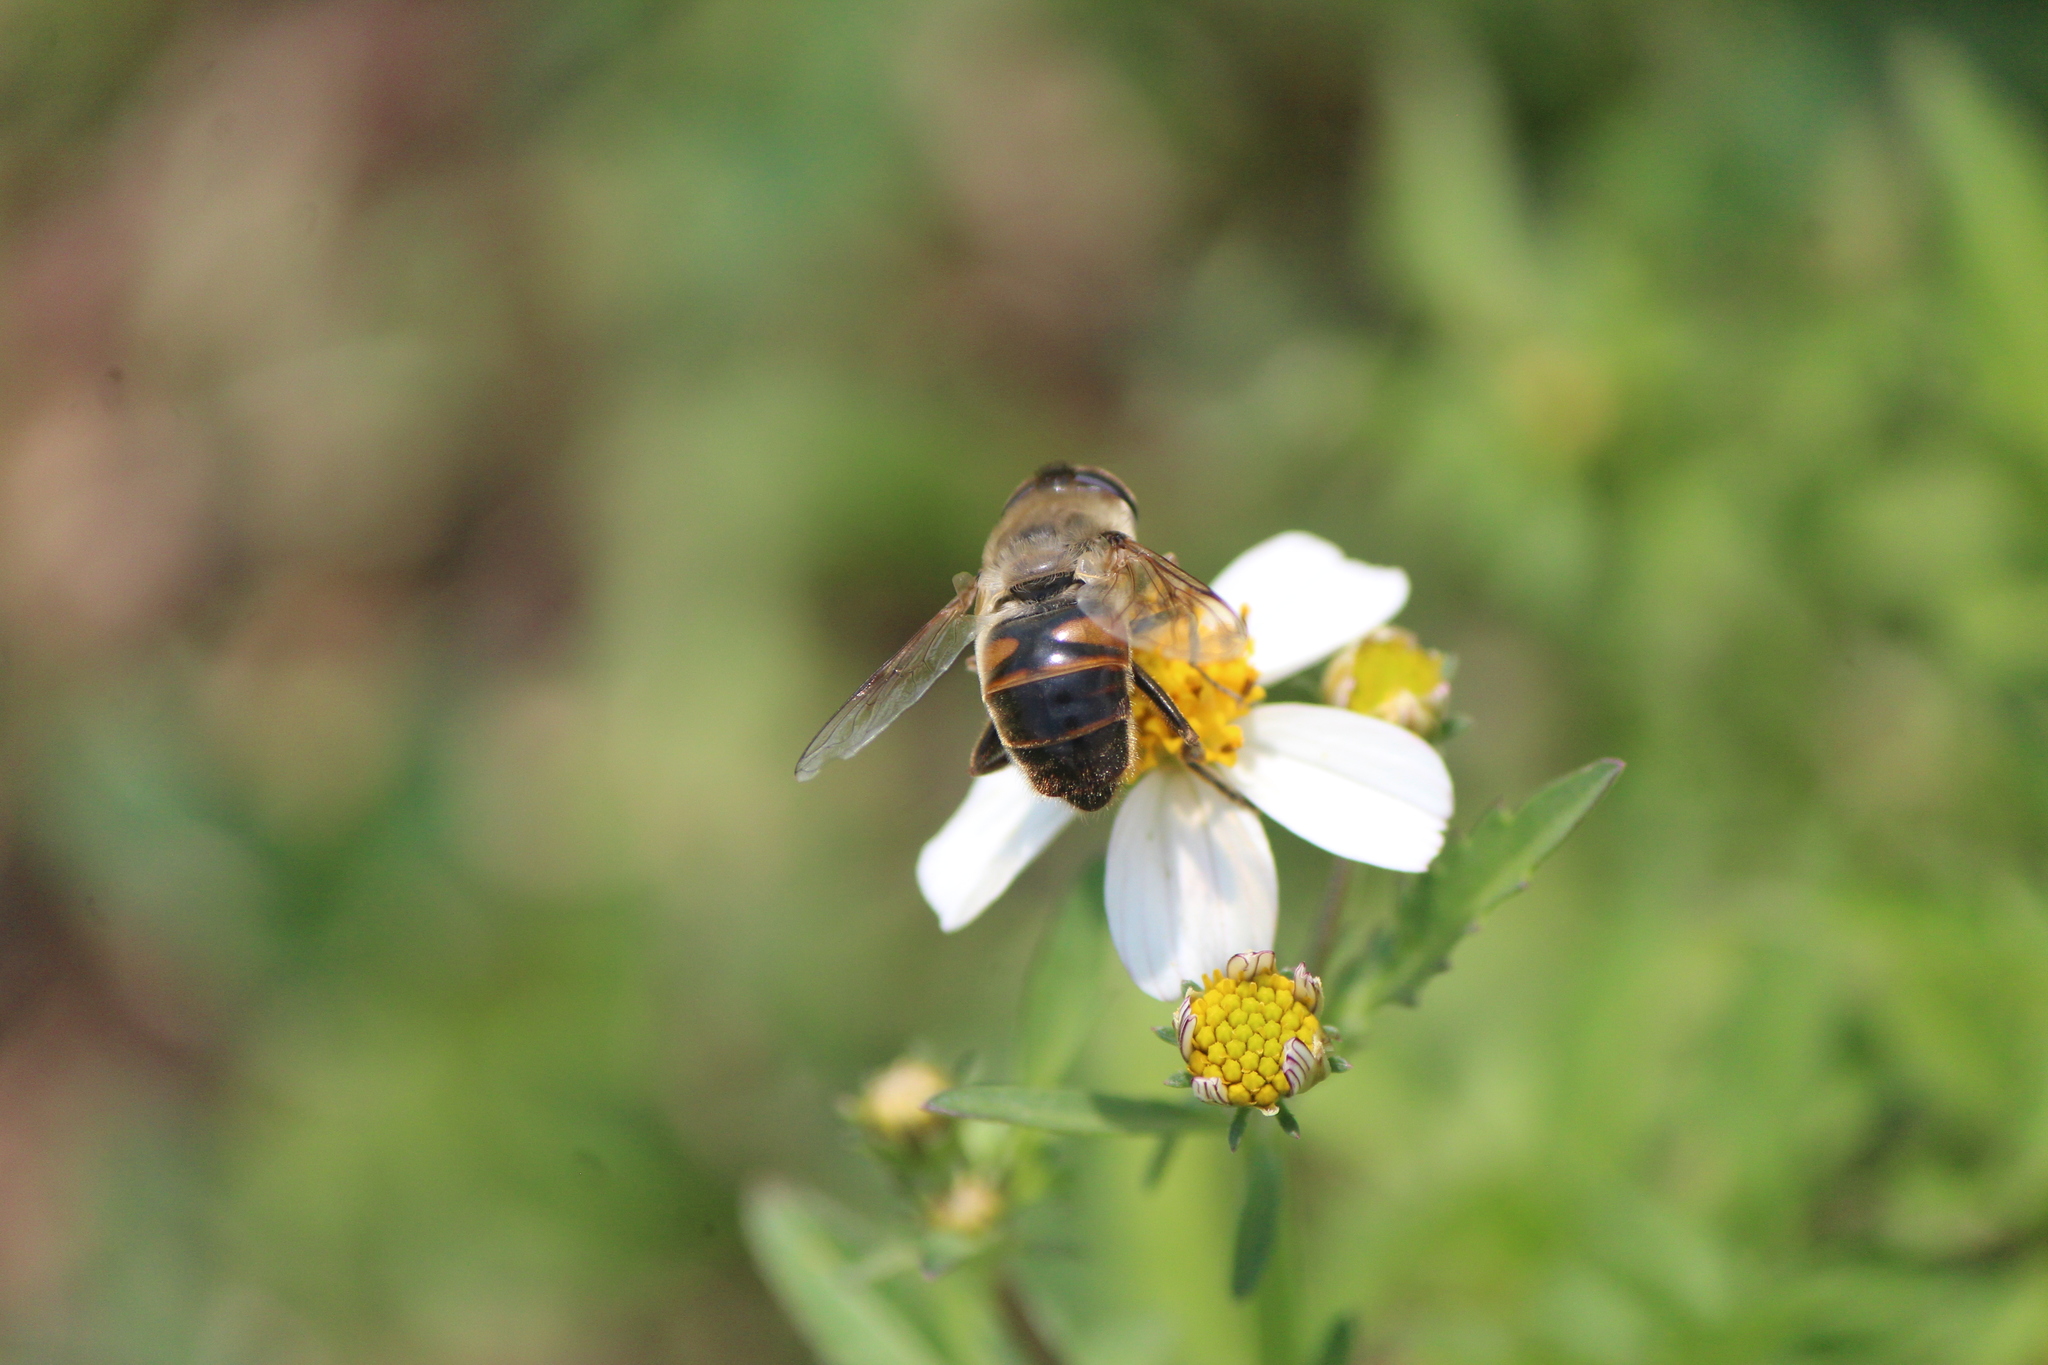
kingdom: Animalia
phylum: Arthropoda
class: Insecta
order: Diptera
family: Syrphidae
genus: Eristalis
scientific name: Eristalis tenax
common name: Drone fly
